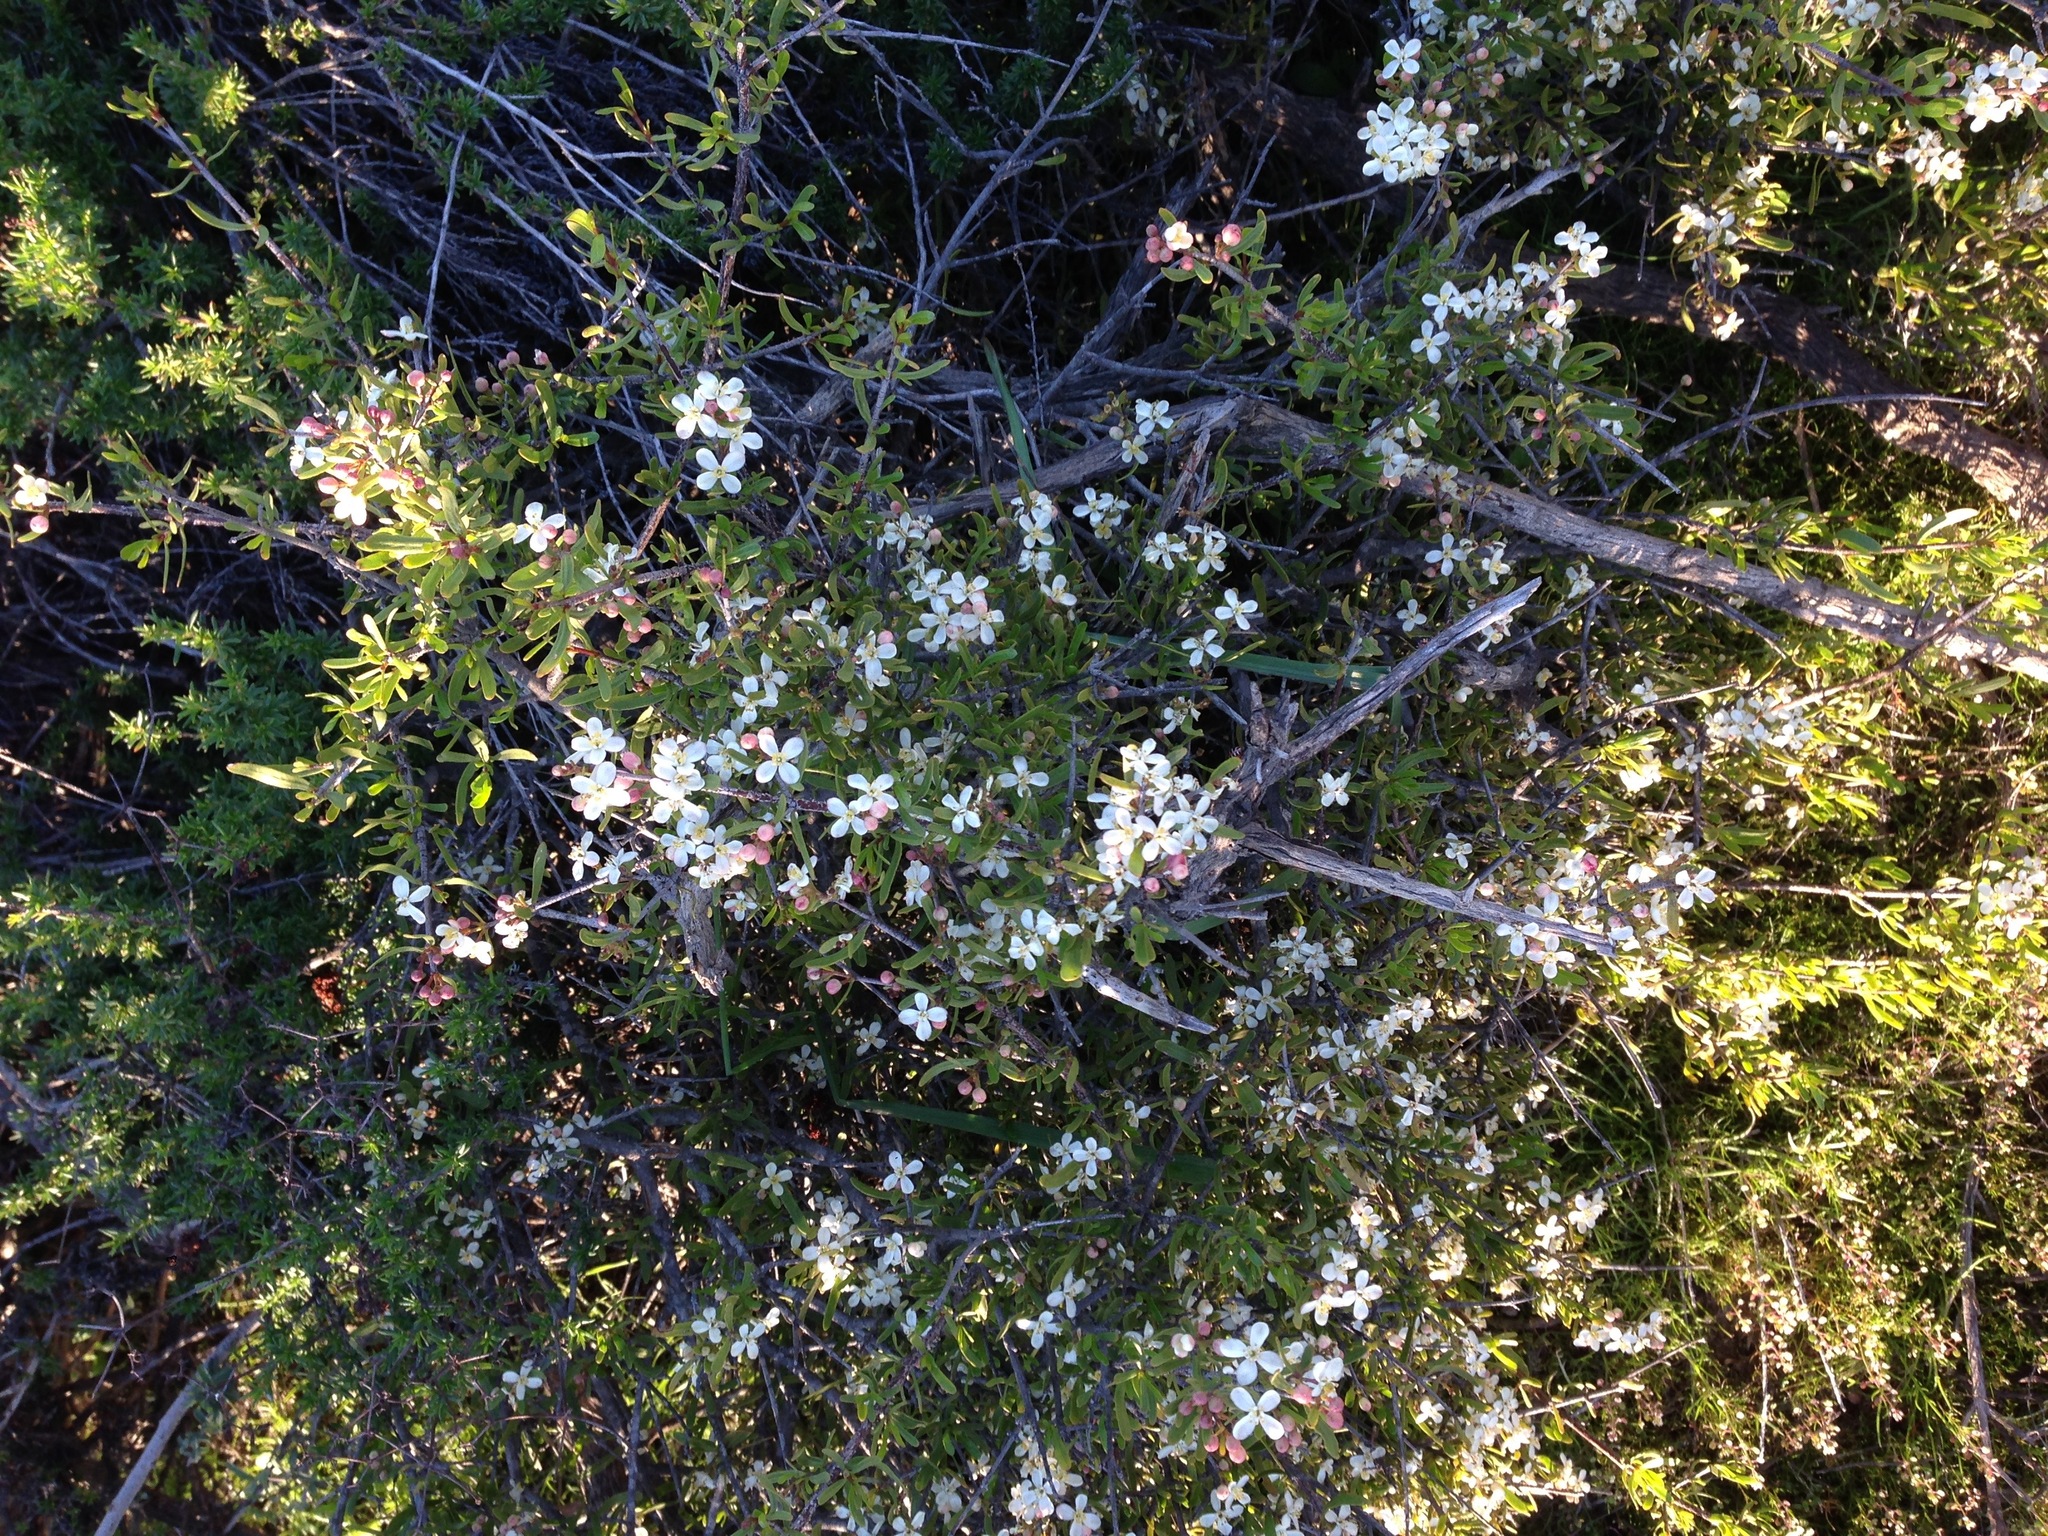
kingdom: Plantae
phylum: Tracheophyta
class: Magnoliopsida
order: Sapindales
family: Rutaceae
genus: Cneoridium
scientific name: Cneoridium dumosum
